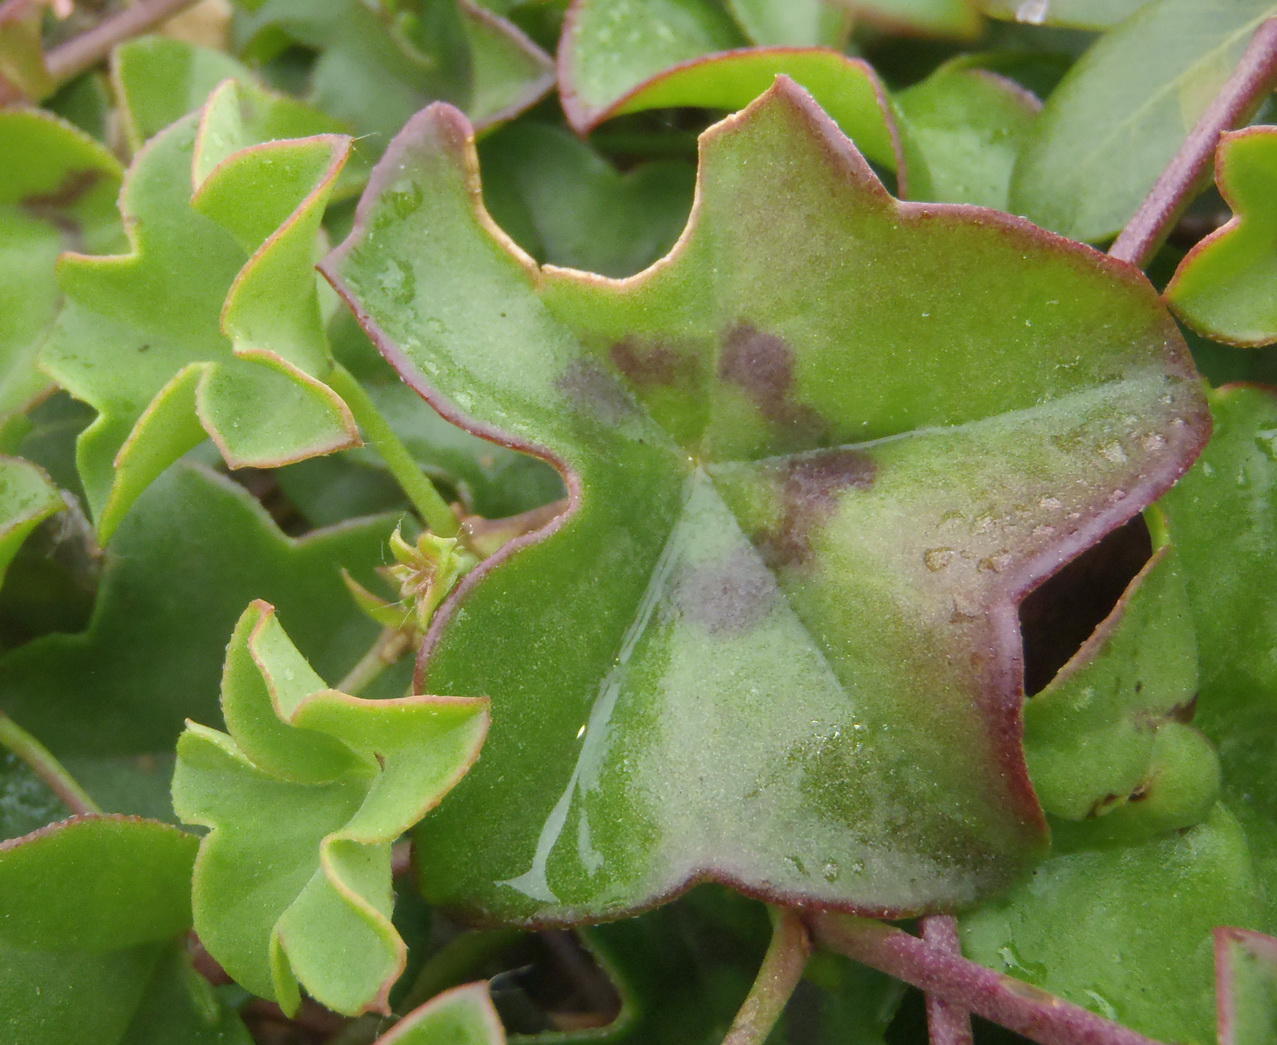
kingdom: Plantae
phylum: Tracheophyta
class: Magnoliopsida
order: Geraniales
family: Geraniaceae
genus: Pelargonium
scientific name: Pelargonium peltatum
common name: Ivyleaf geranium
